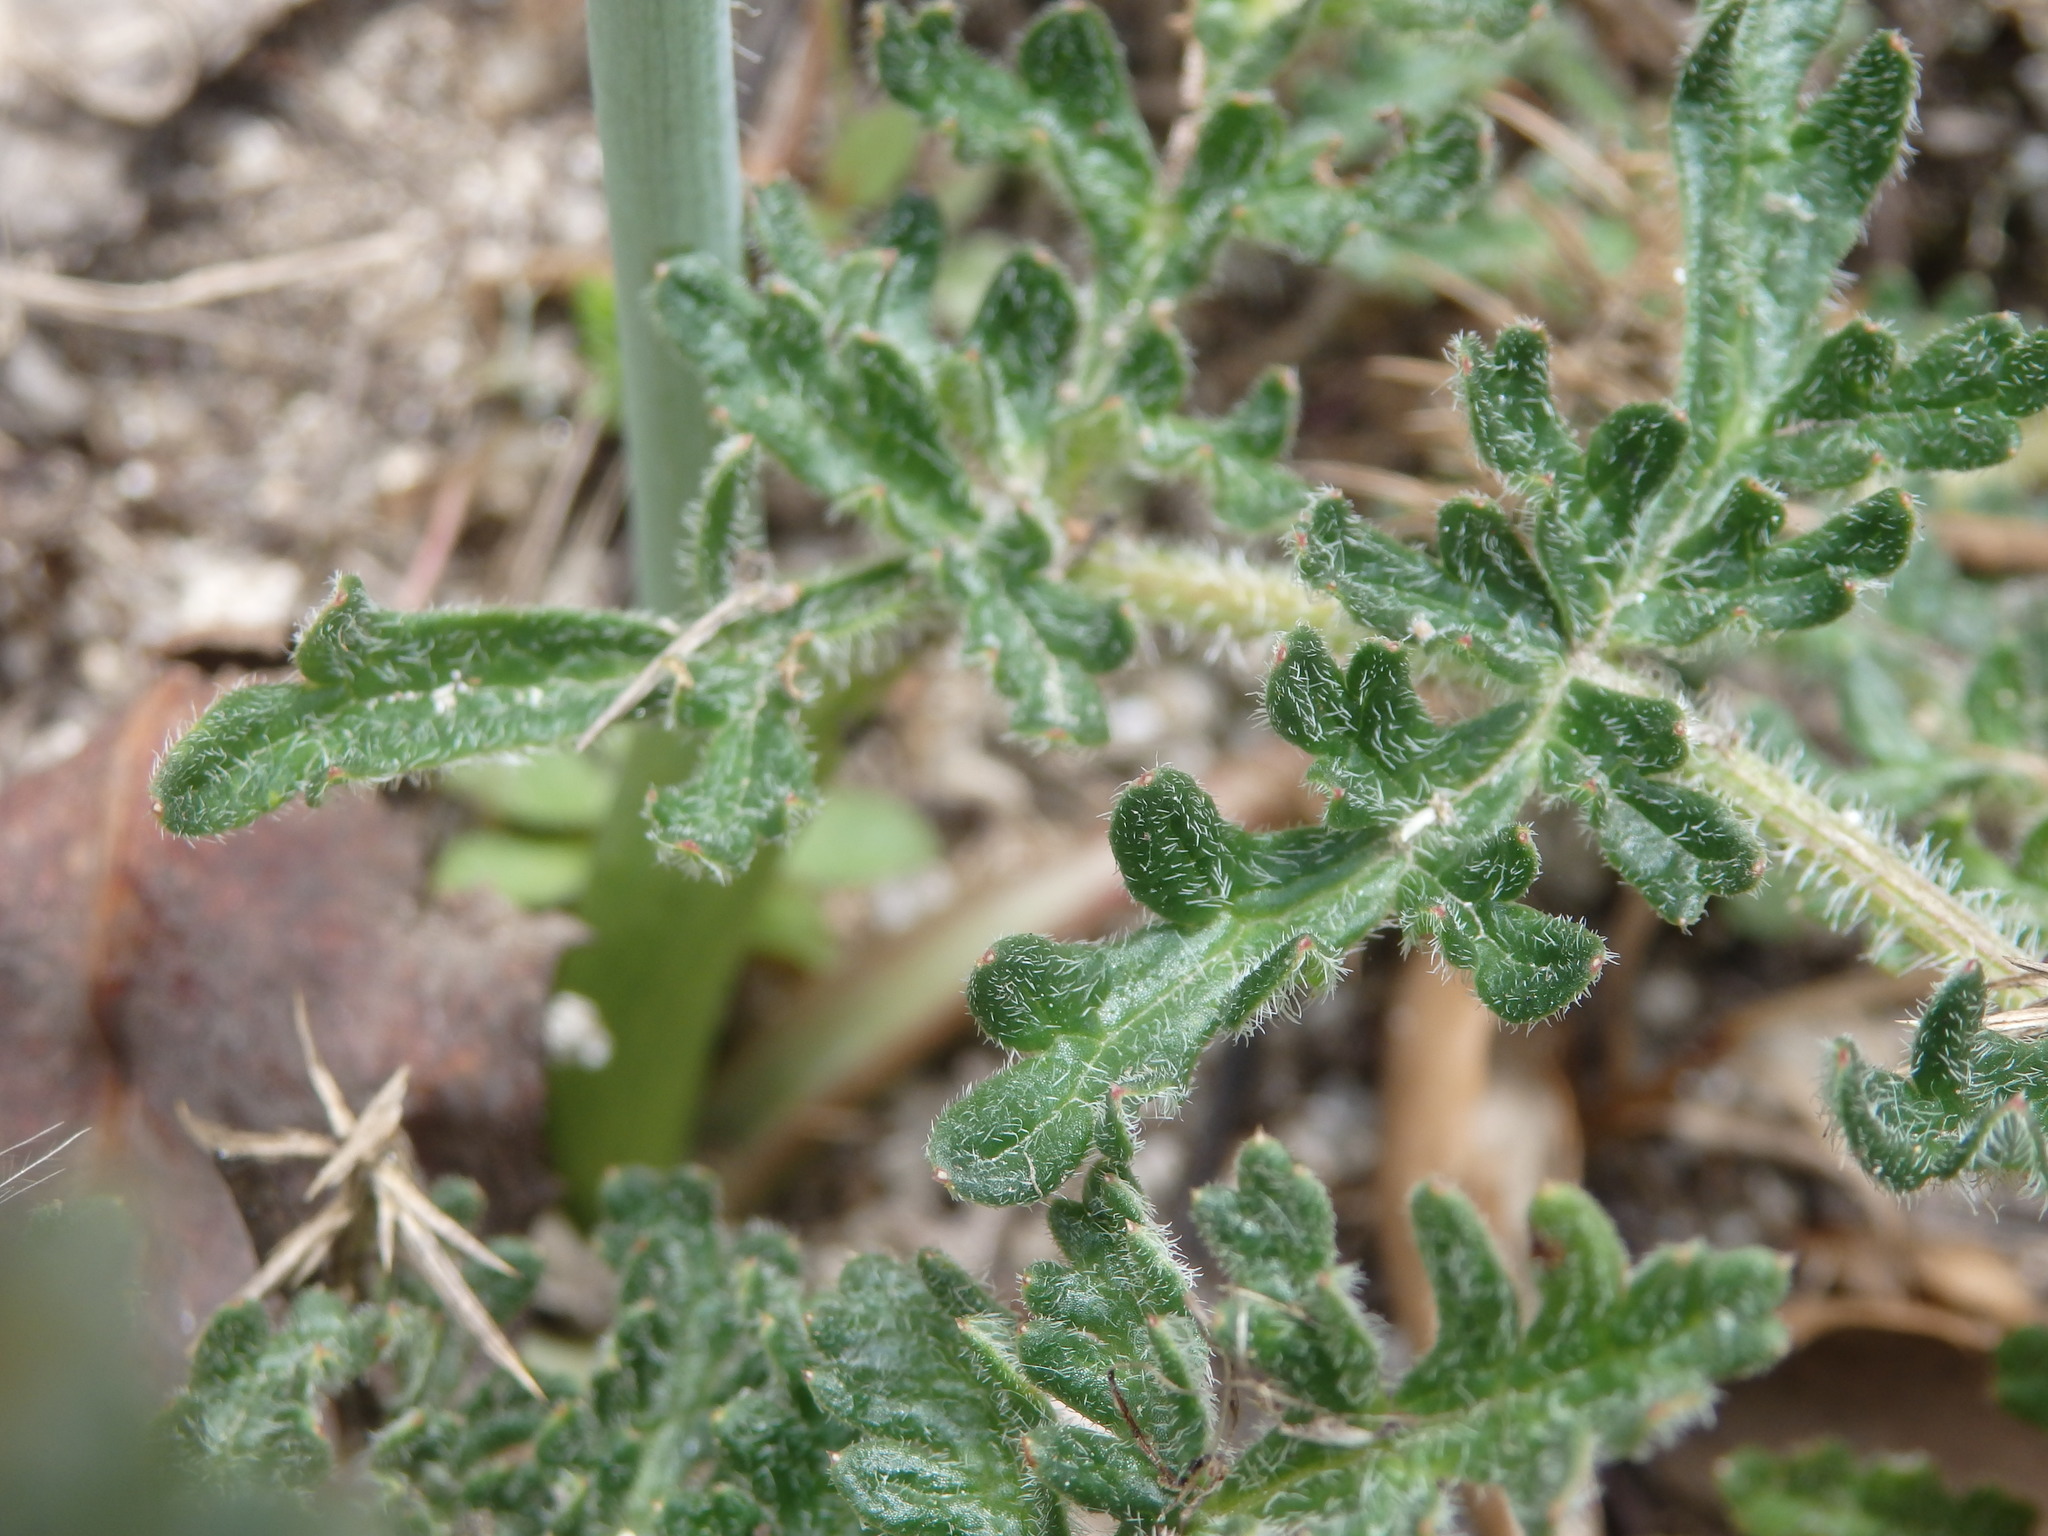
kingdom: Plantae
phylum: Tracheophyta
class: Magnoliopsida
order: Apiales
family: Apiaceae
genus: Thapsia
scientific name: Thapsia minor
